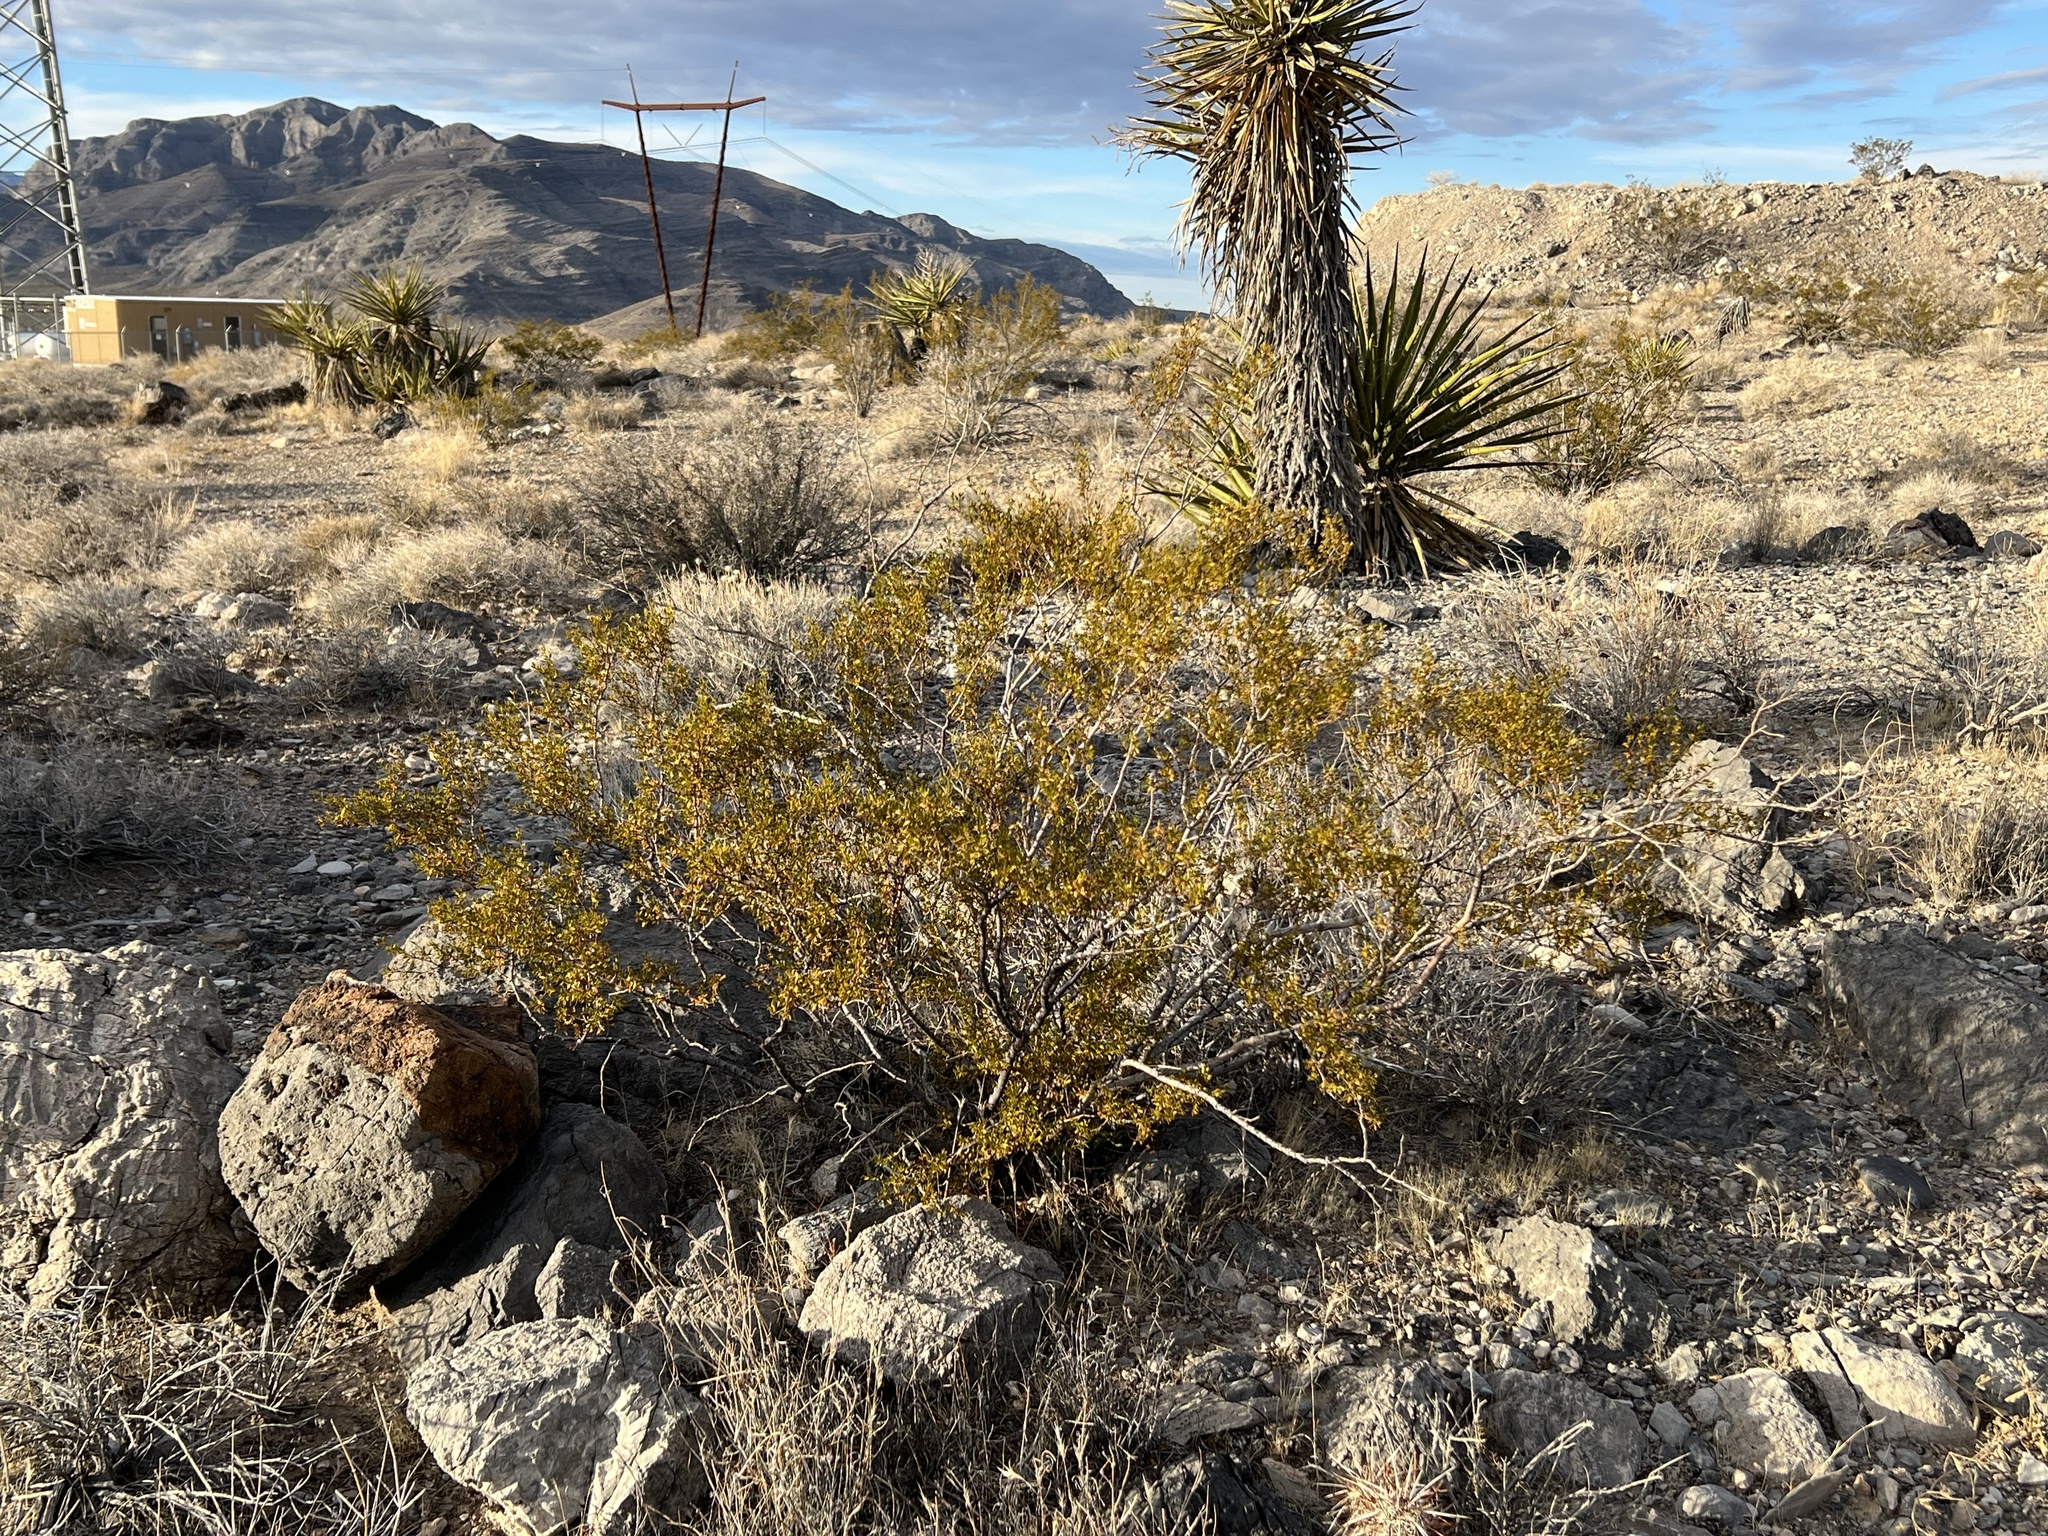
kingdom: Plantae
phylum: Tracheophyta
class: Magnoliopsida
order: Zygophyllales
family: Zygophyllaceae
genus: Larrea
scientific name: Larrea tridentata
